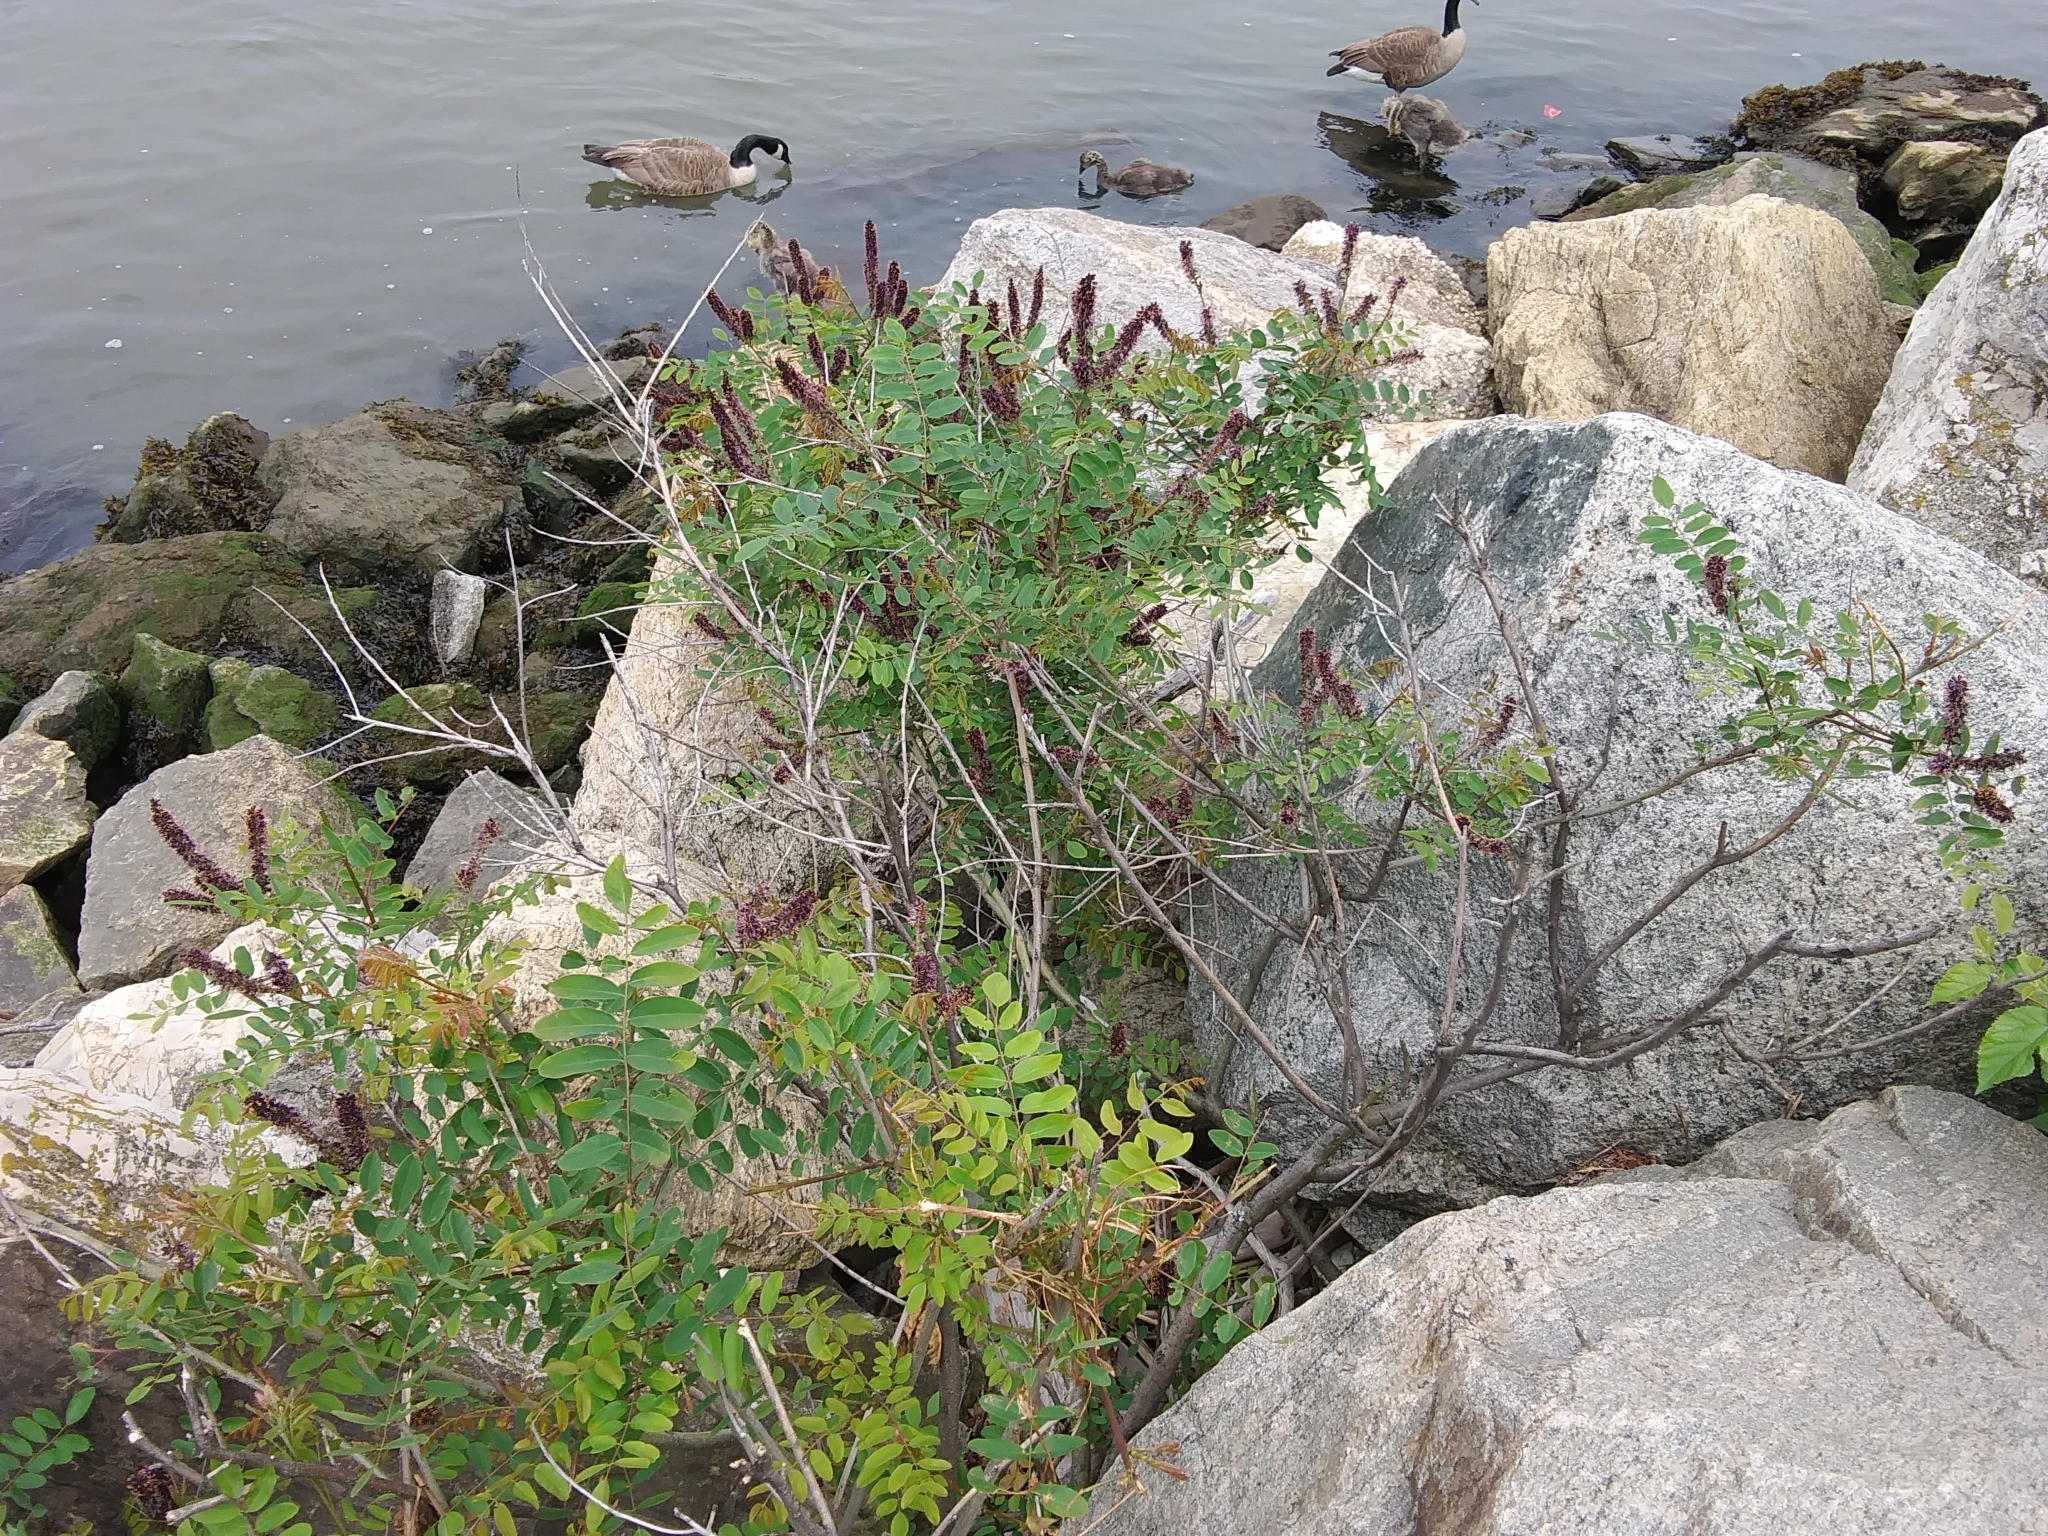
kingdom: Plantae
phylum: Tracheophyta
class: Magnoliopsida
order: Fabales
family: Fabaceae
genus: Amorpha
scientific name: Amorpha fruticosa
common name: False indigo
